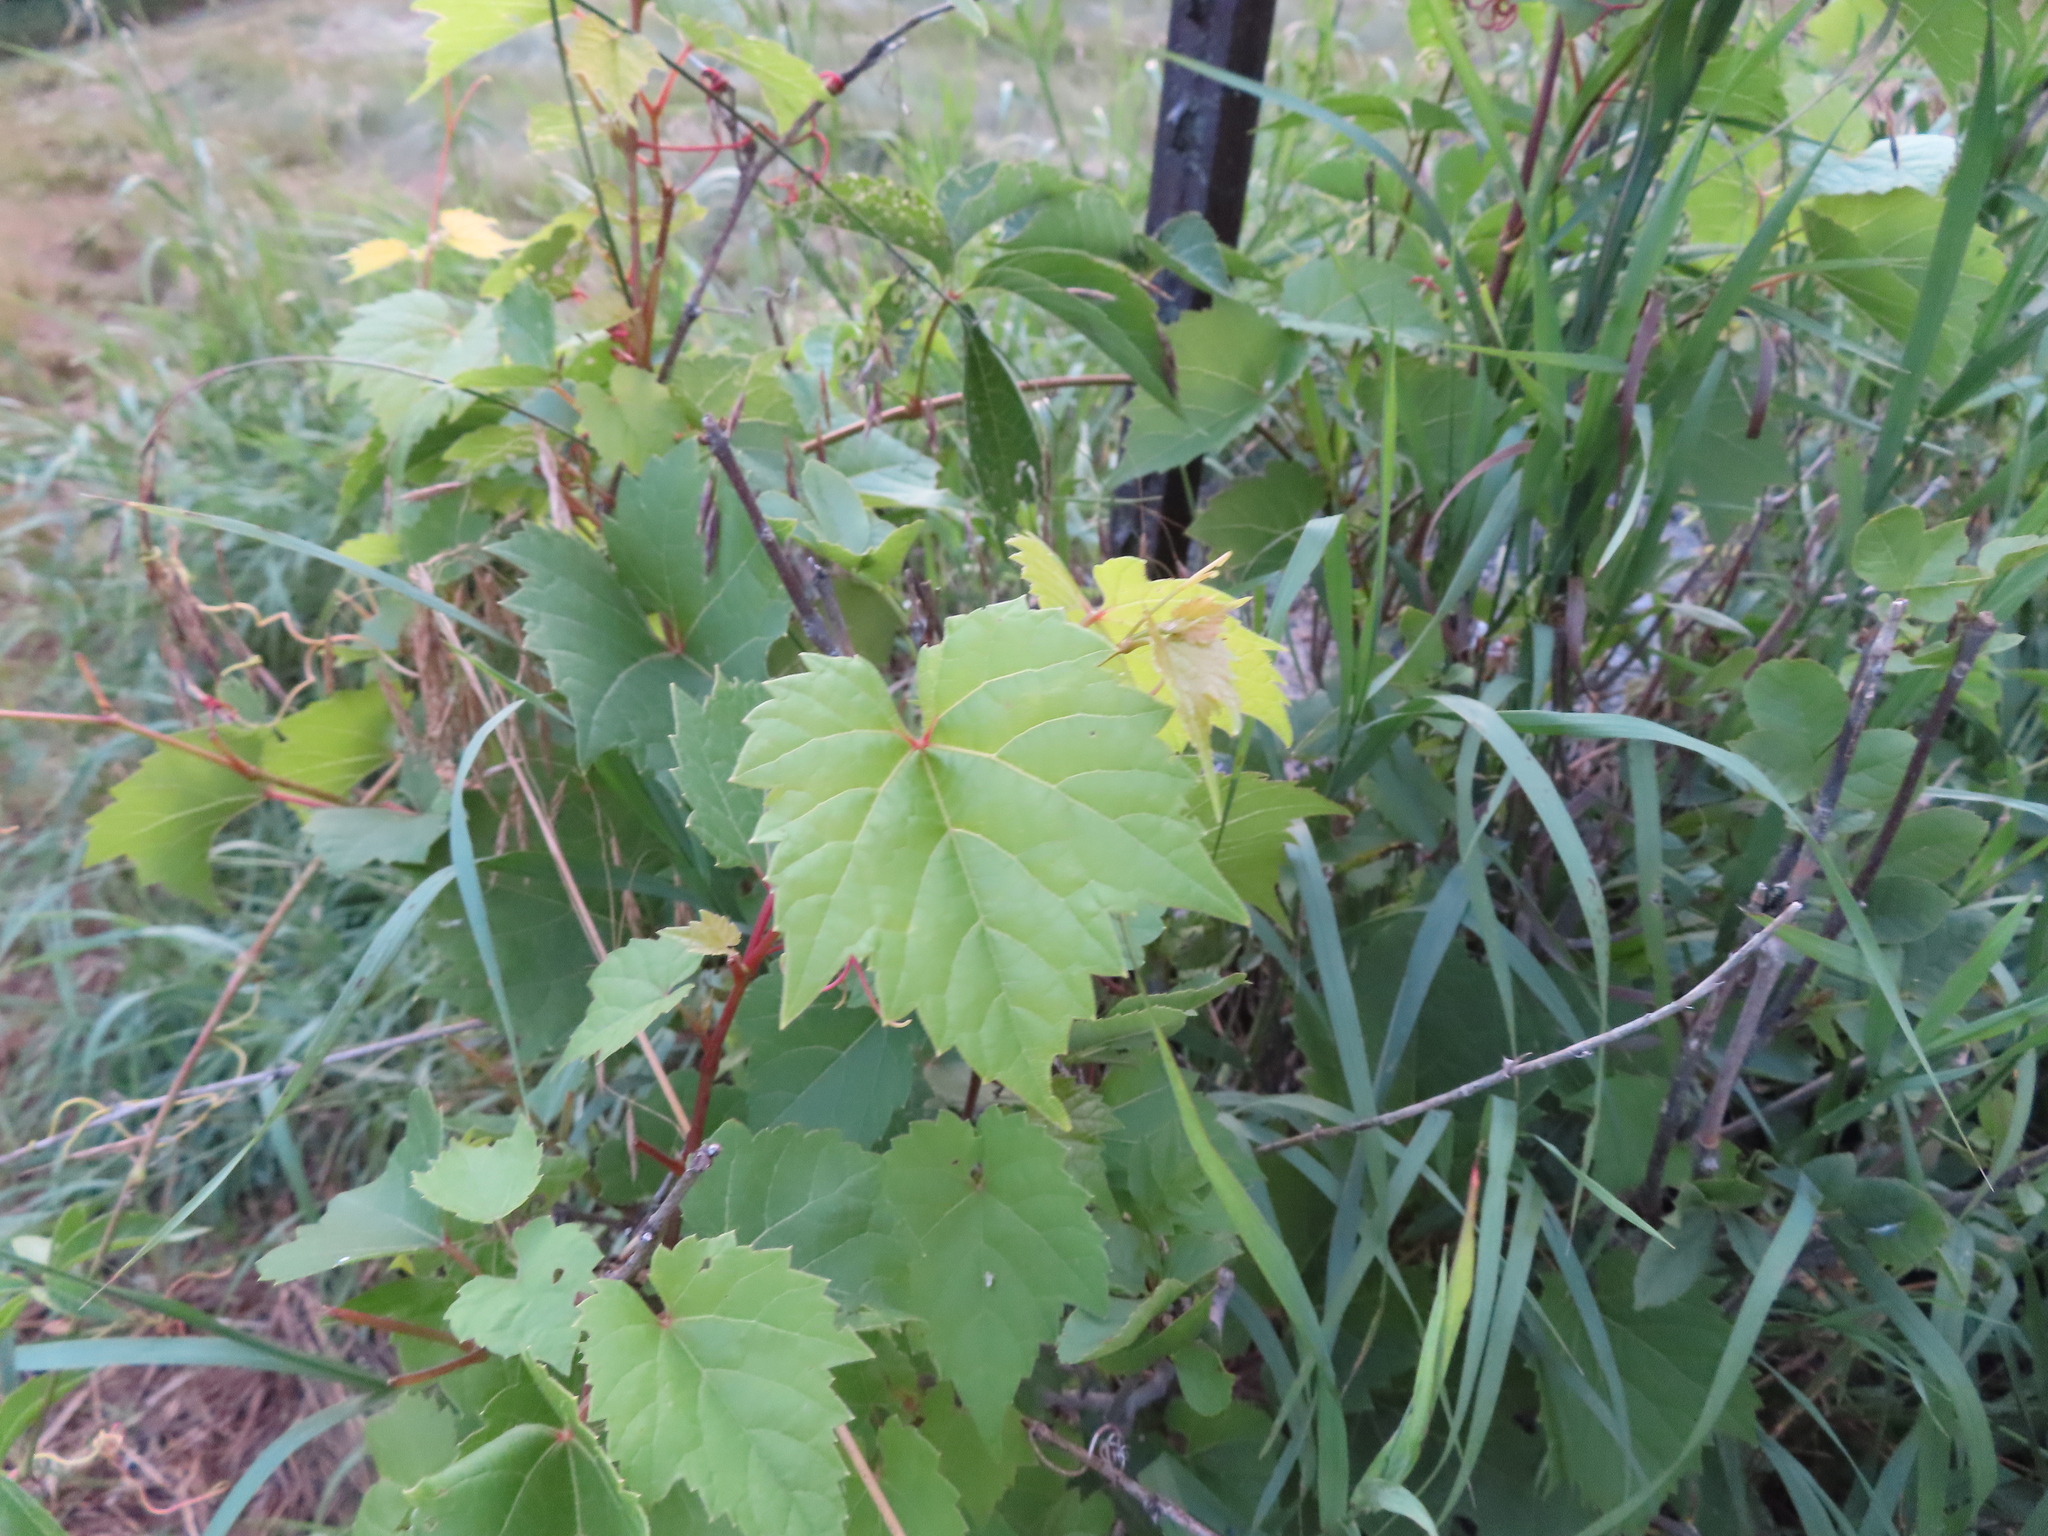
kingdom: Plantae
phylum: Tracheophyta
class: Magnoliopsida
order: Vitales
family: Vitaceae
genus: Vitis
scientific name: Vitis riparia
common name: Frost grape
